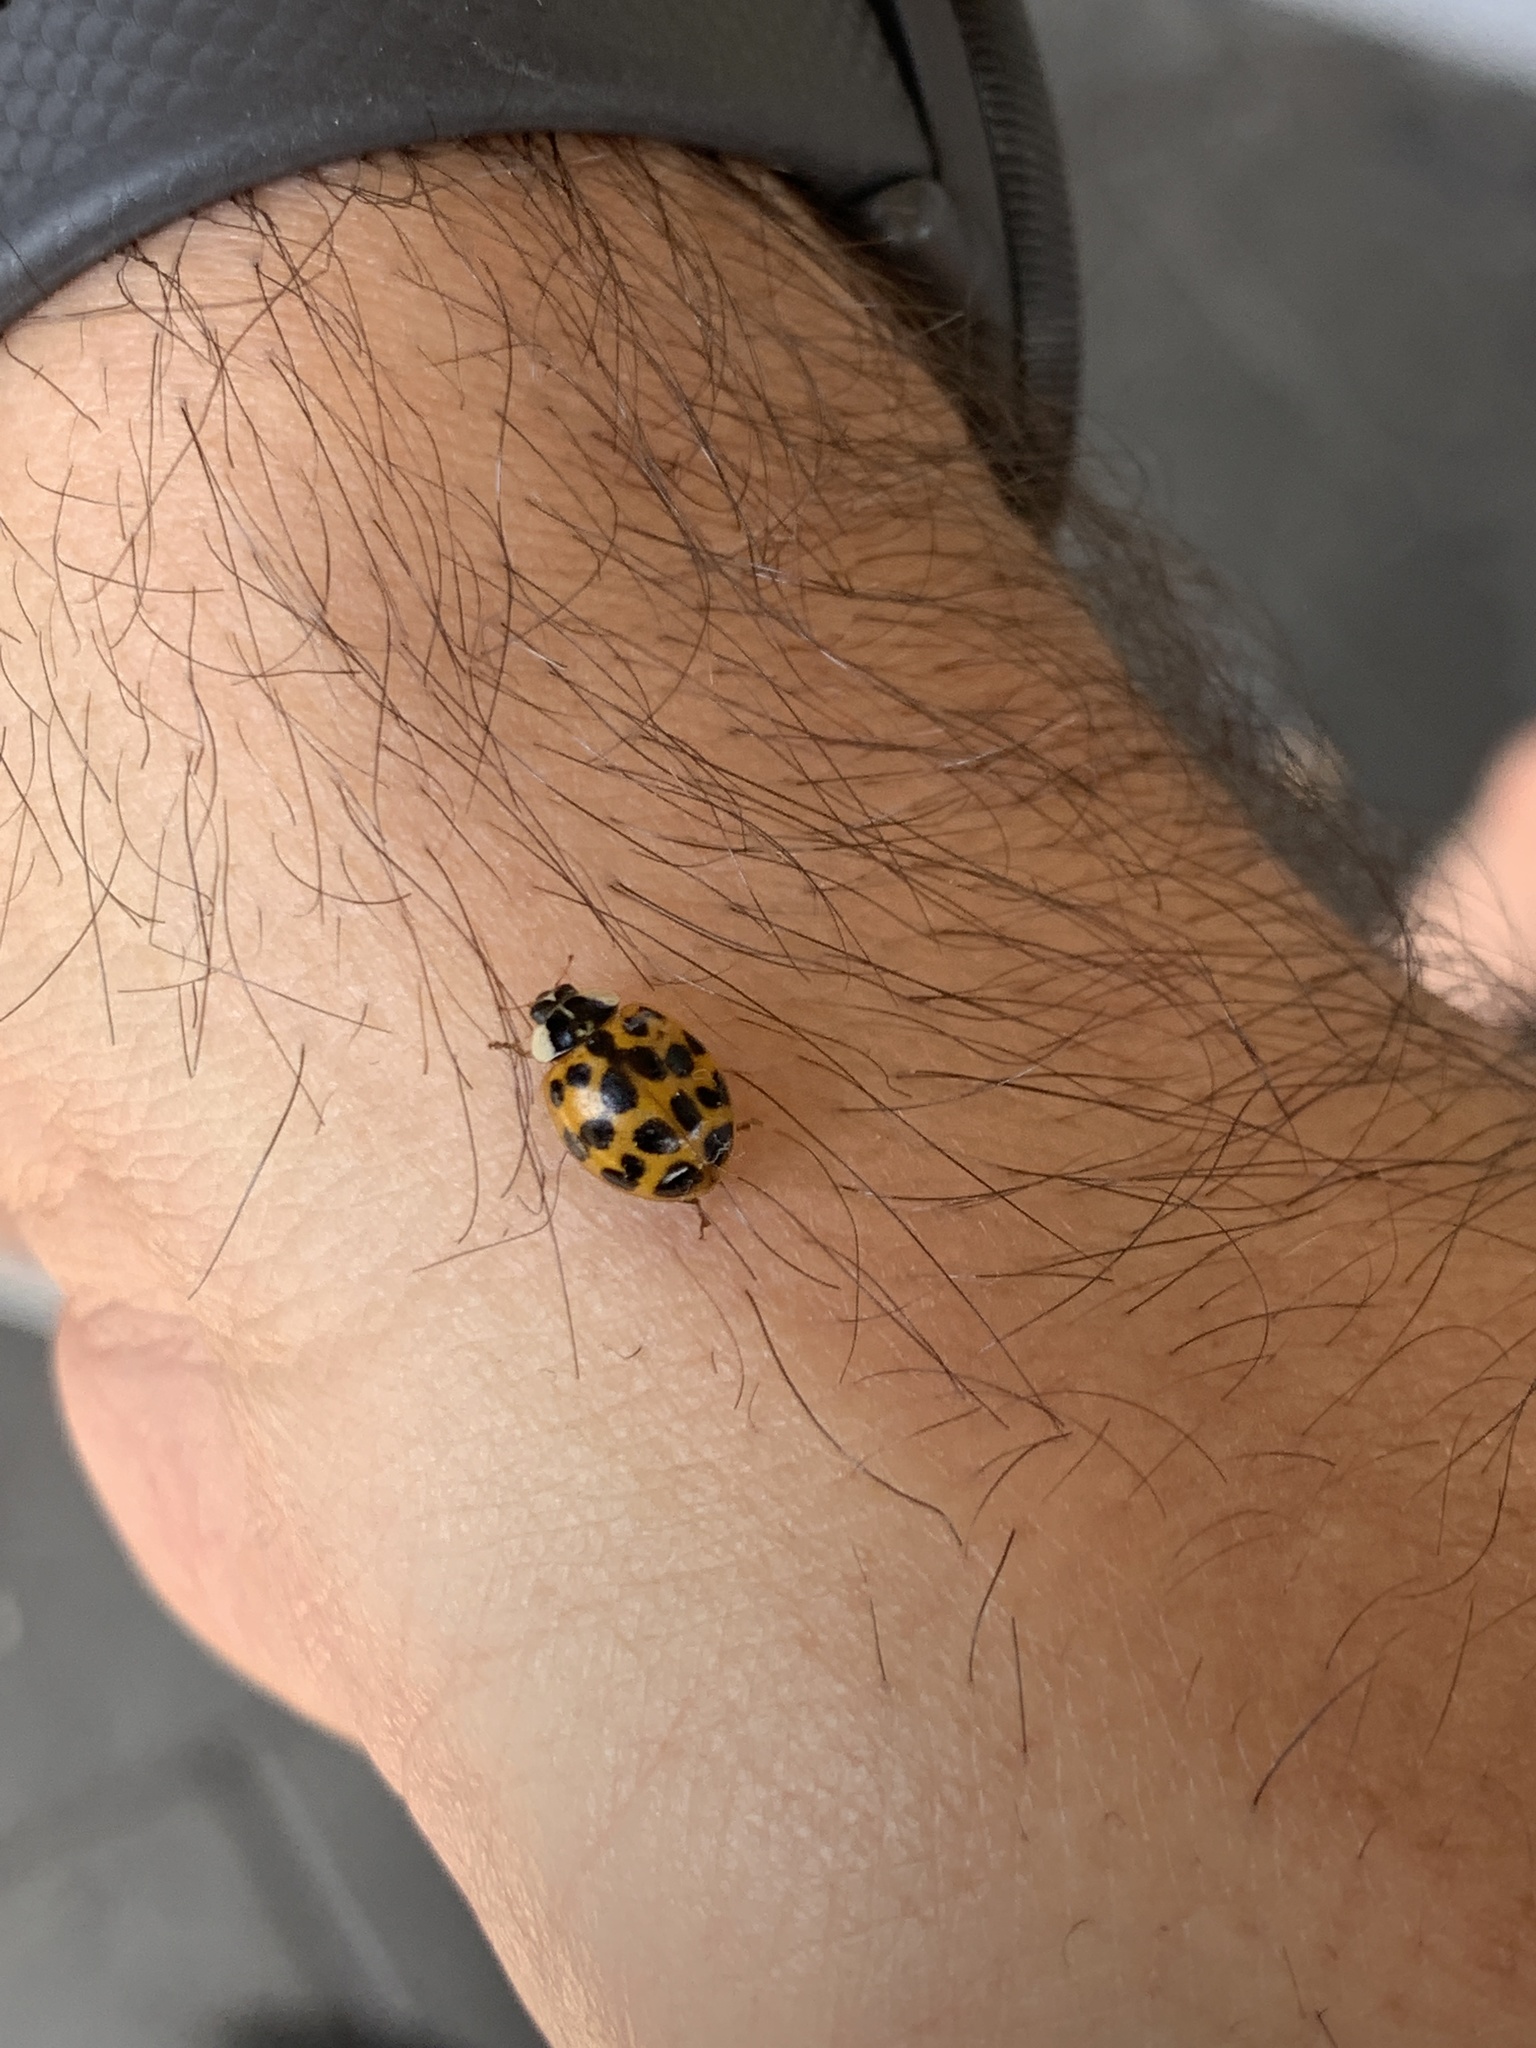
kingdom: Animalia
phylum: Arthropoda
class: Insecta
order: Coleoptera
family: Coccinellidae
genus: Harmonia
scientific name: Harmonia axyridis
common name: Harlequin ladybird
